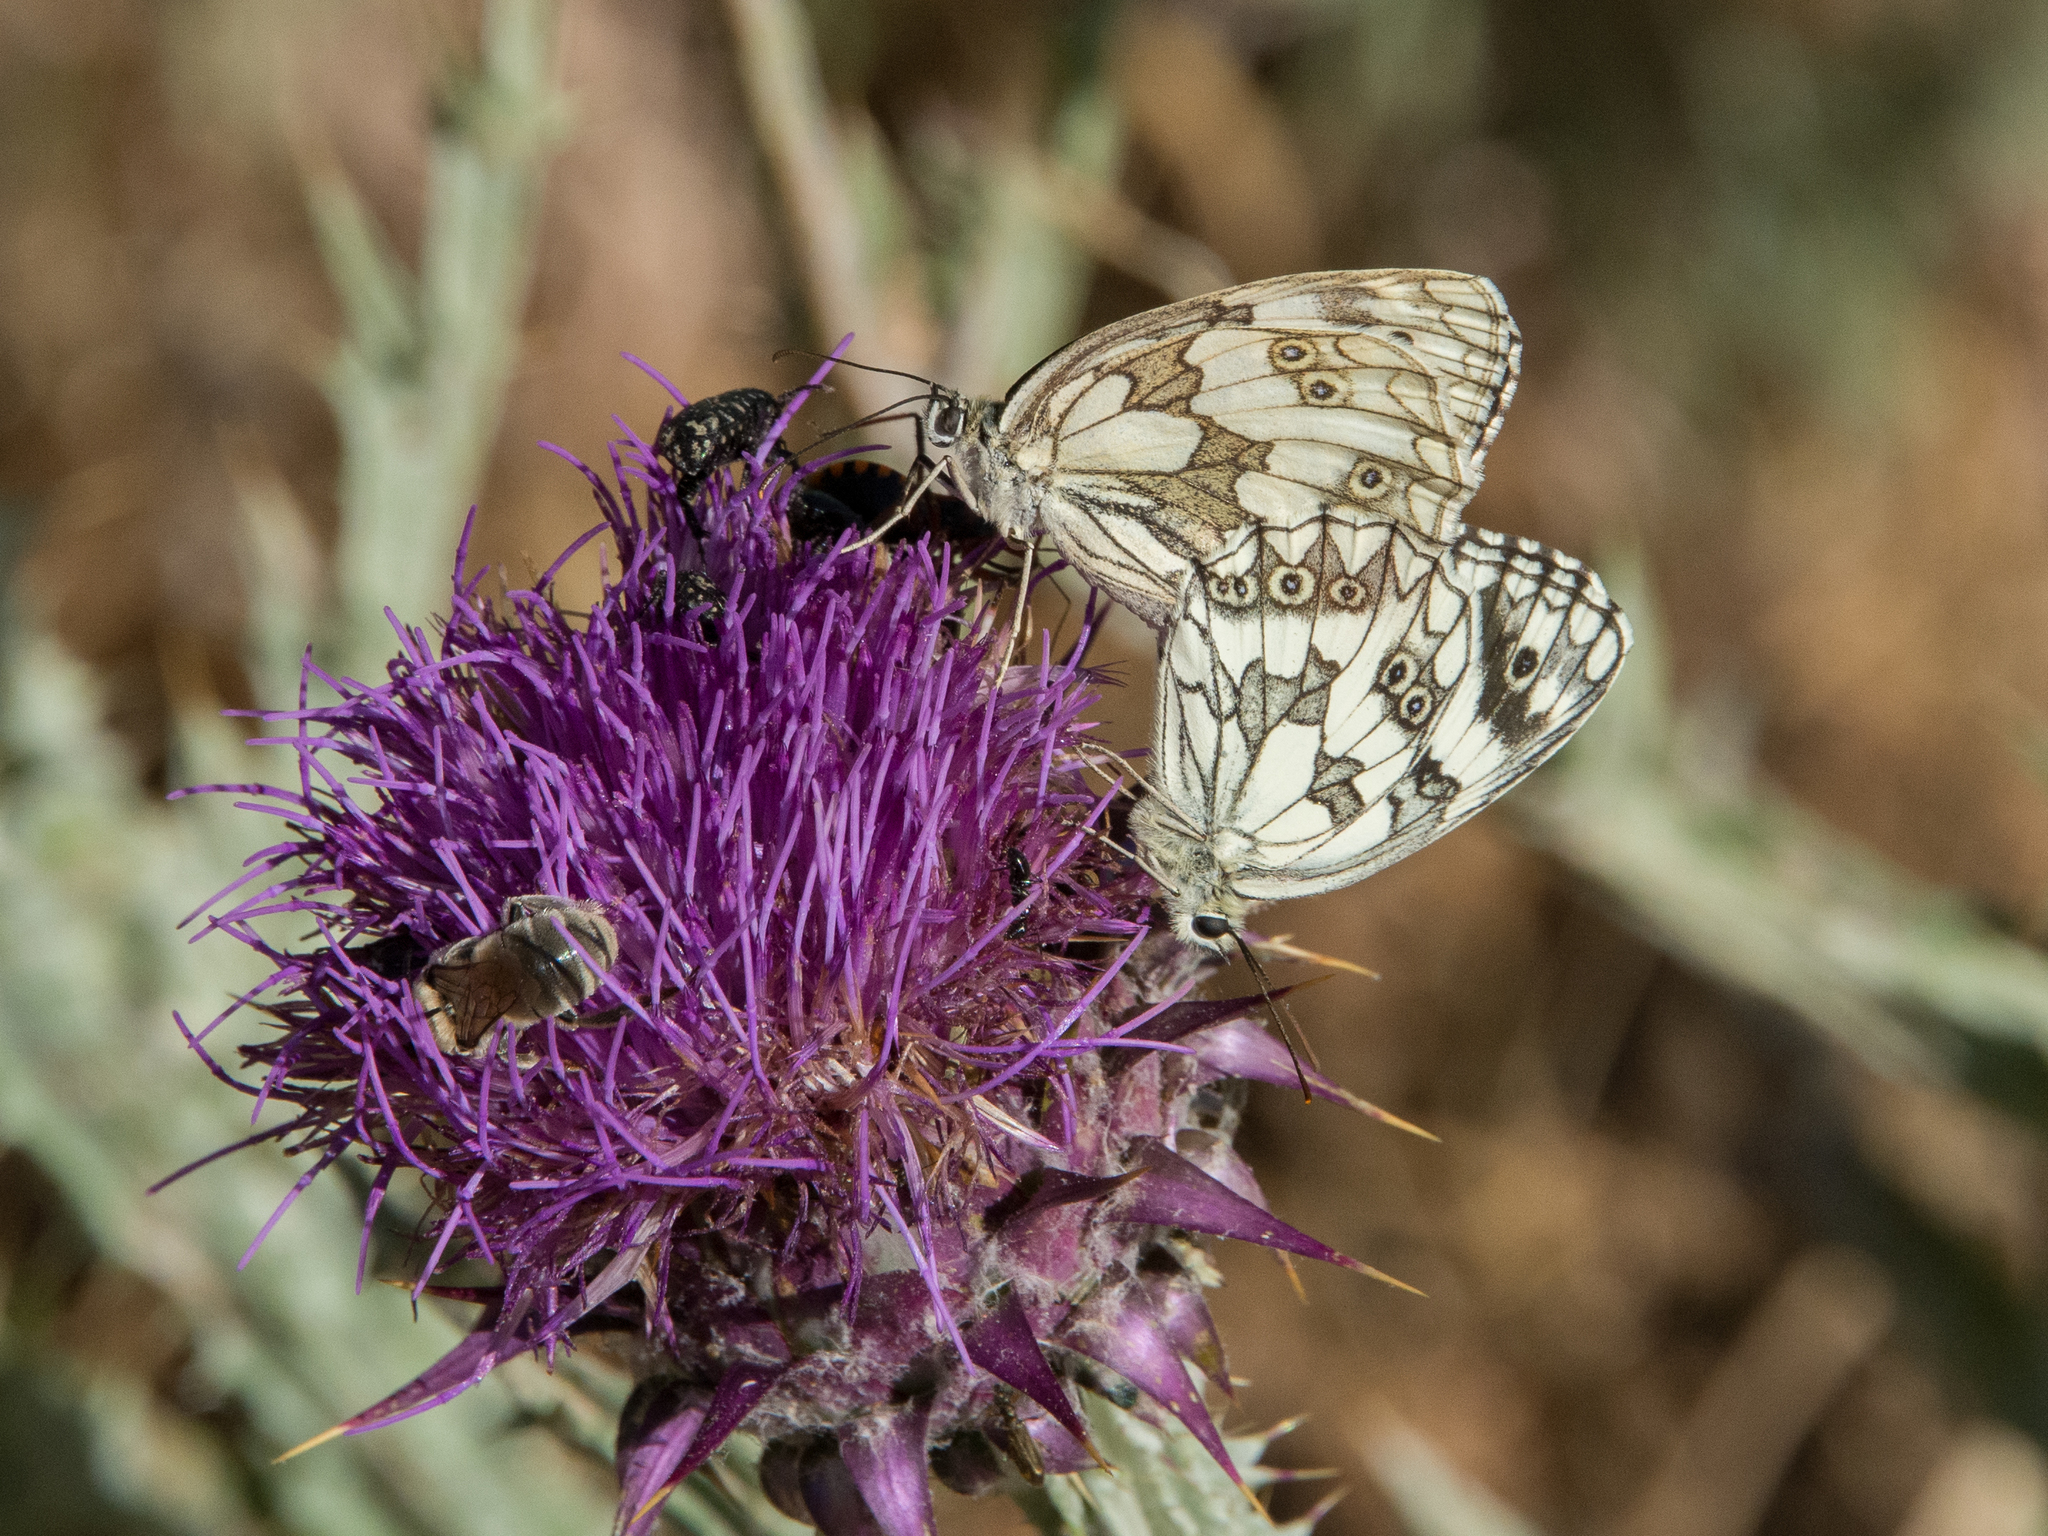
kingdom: Animalia
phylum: Arthropoda
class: Insecta
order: Lepidoptera
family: Nymphalidae
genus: Melanargia
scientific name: Melanargia galathea
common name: Marbled white
